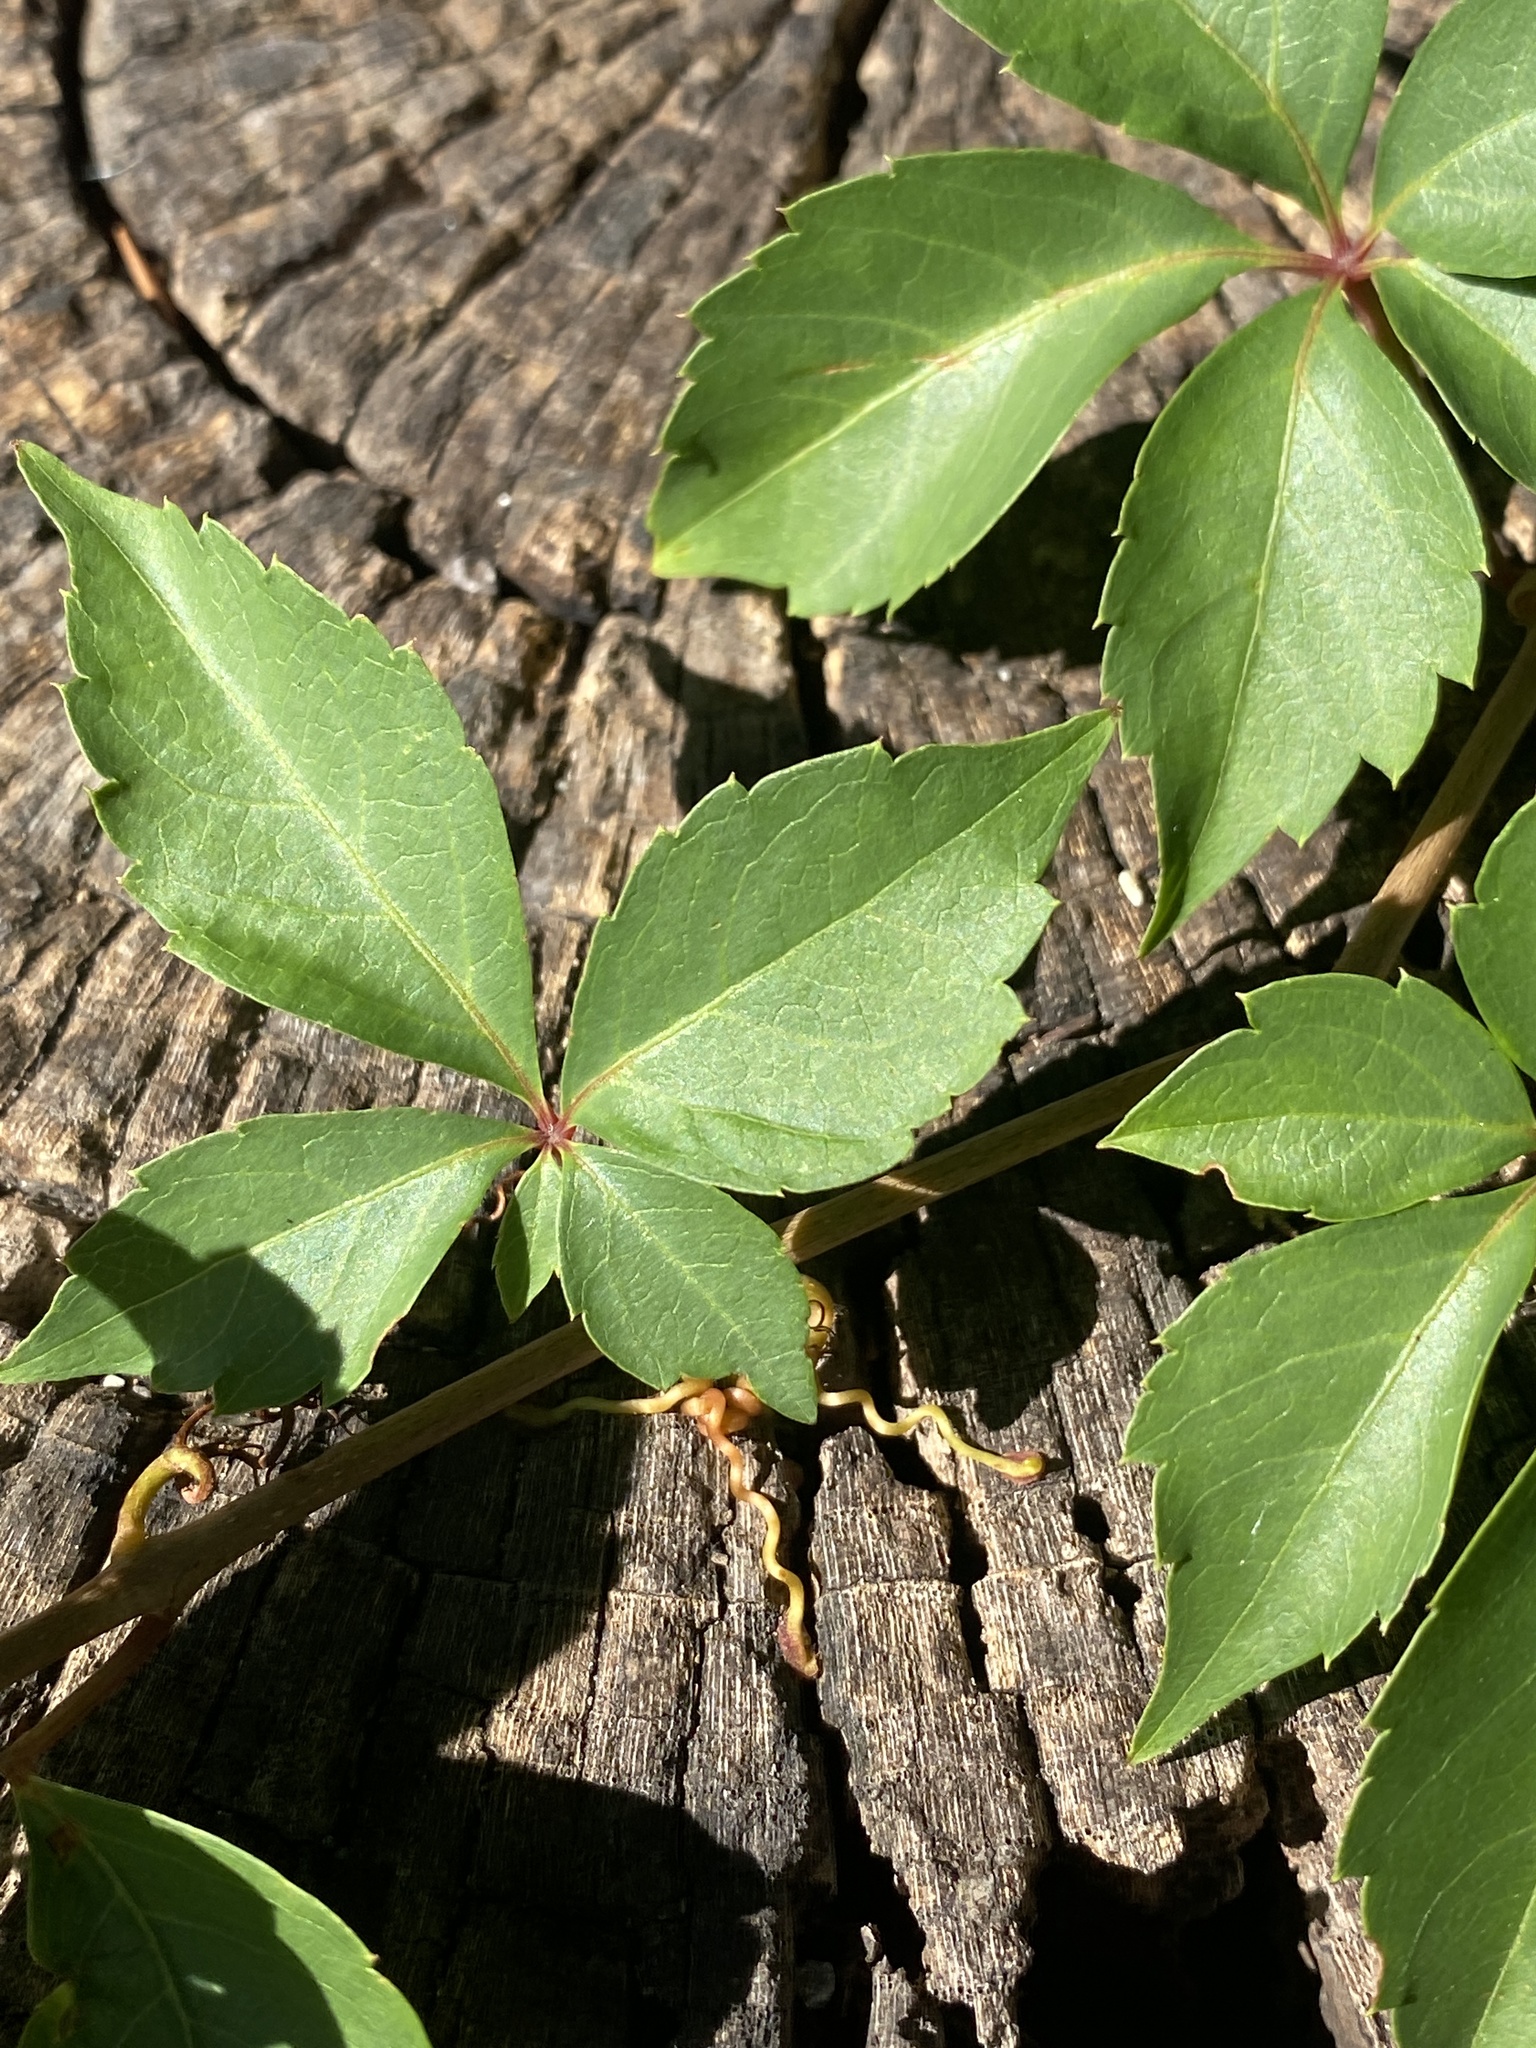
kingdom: Plantae
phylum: Tracheophyta
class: Magnoliopsida
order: Vitales
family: Vitaceae
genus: Parthenocissus
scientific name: Parthenocissus quinquefolia
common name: Virginia-creeper
